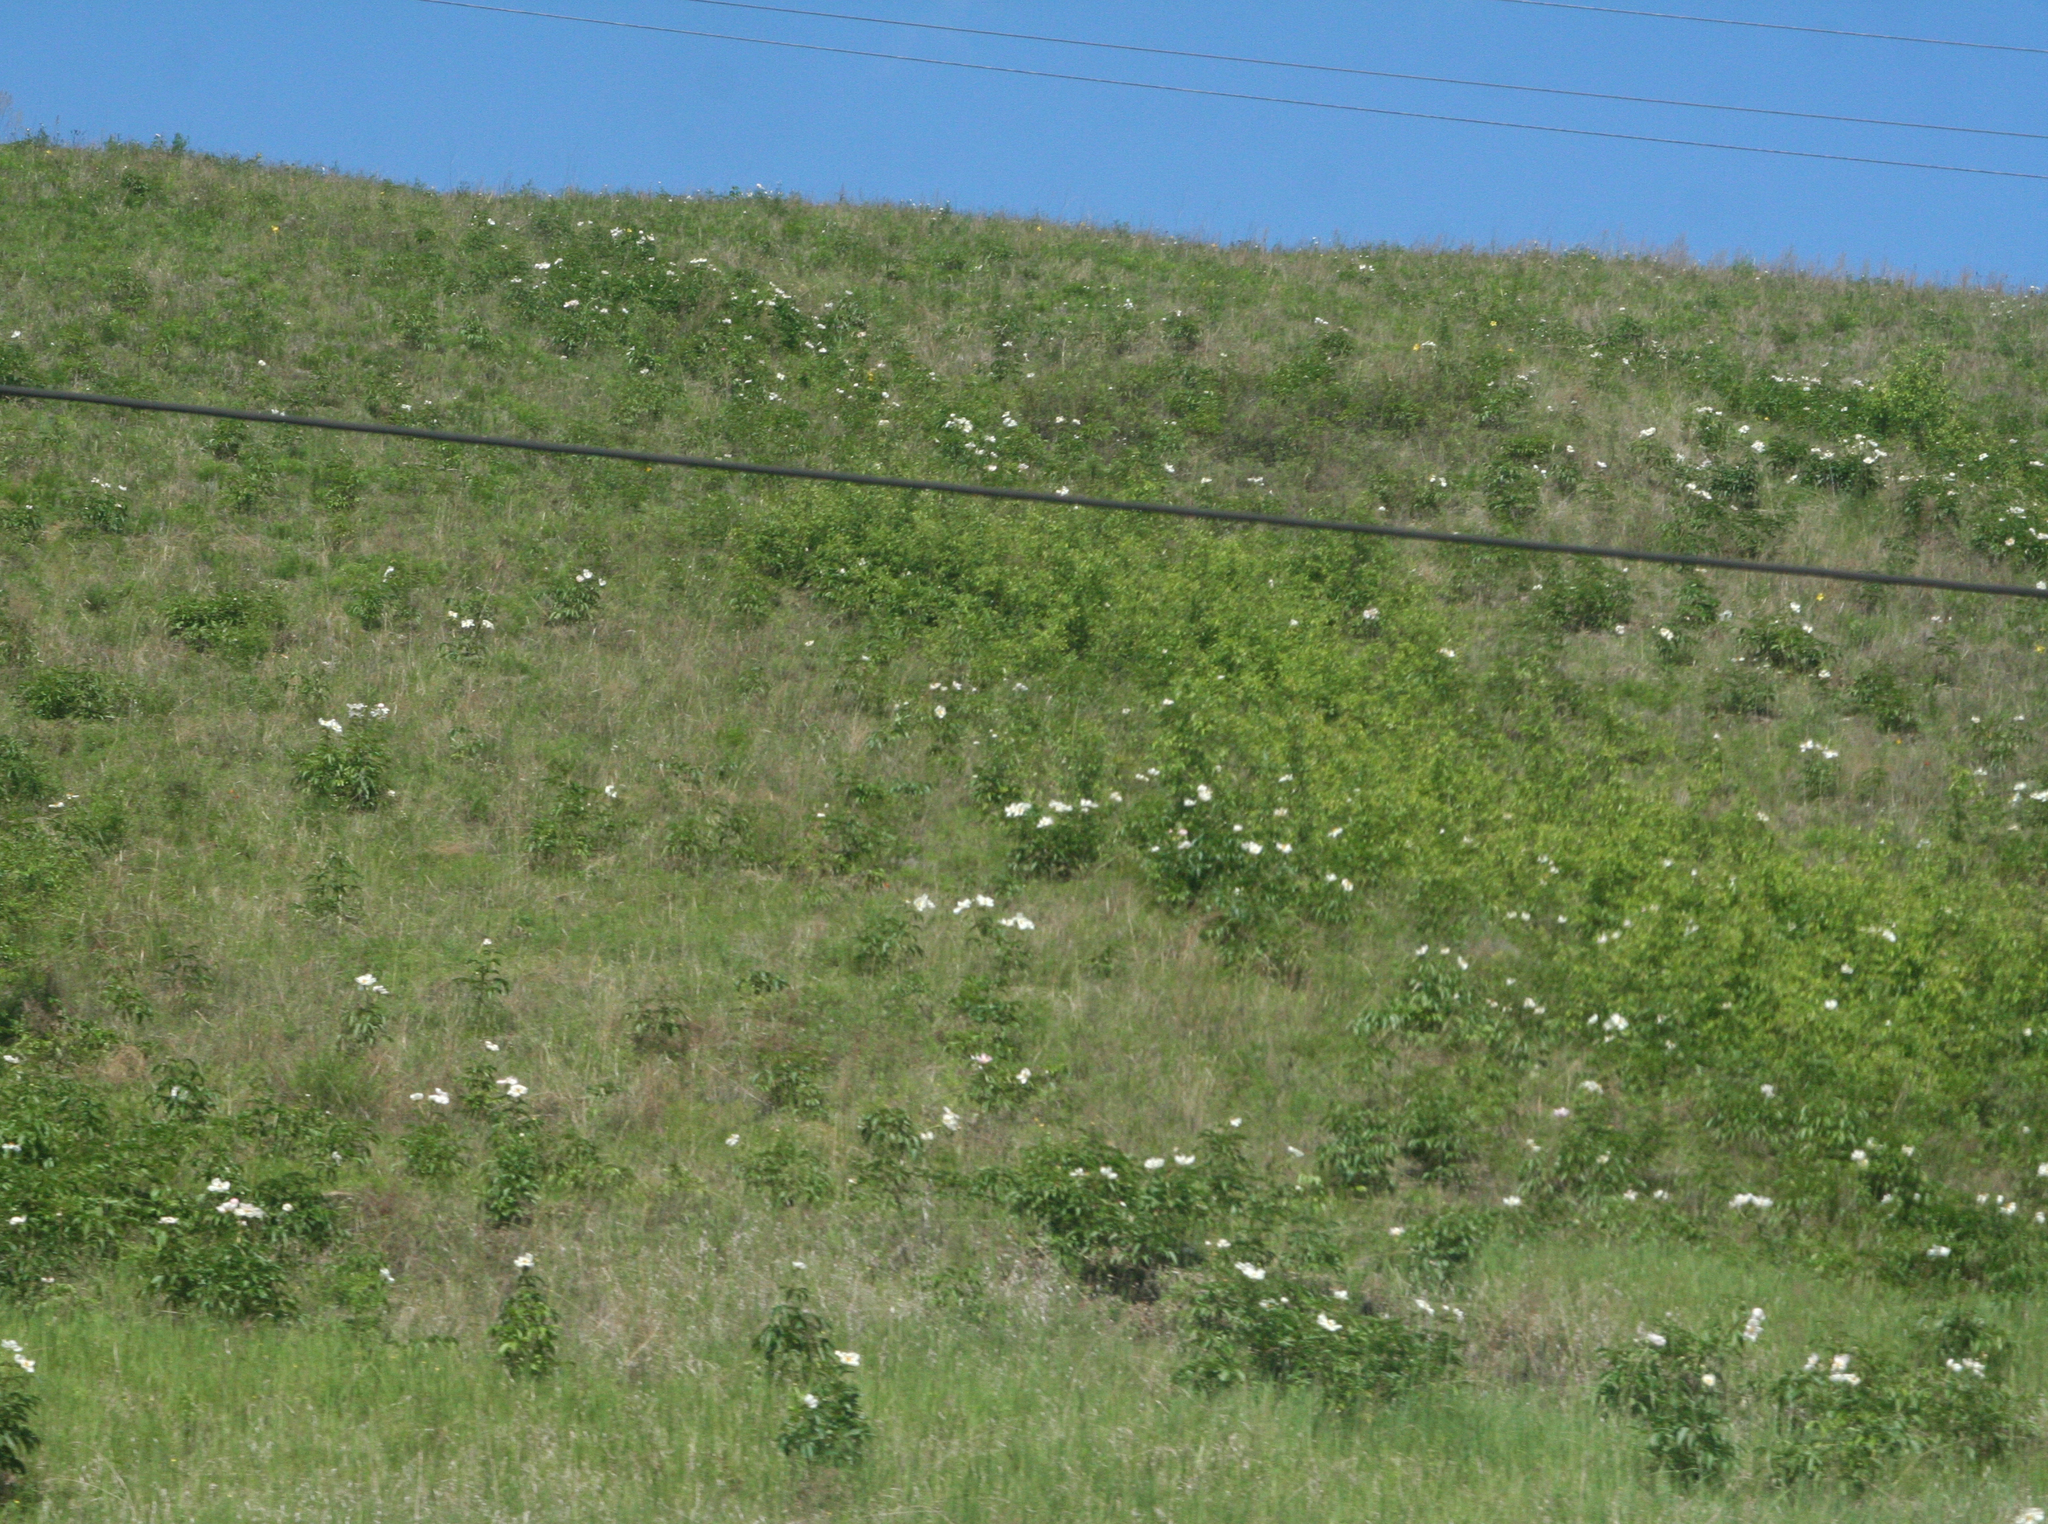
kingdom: Plantae
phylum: Tracheophyta
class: Magnoliopsida
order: Saxifragales
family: Paeoniaceae
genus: Paeonia
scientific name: Paeonia lactiflora
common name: Chinese peony
